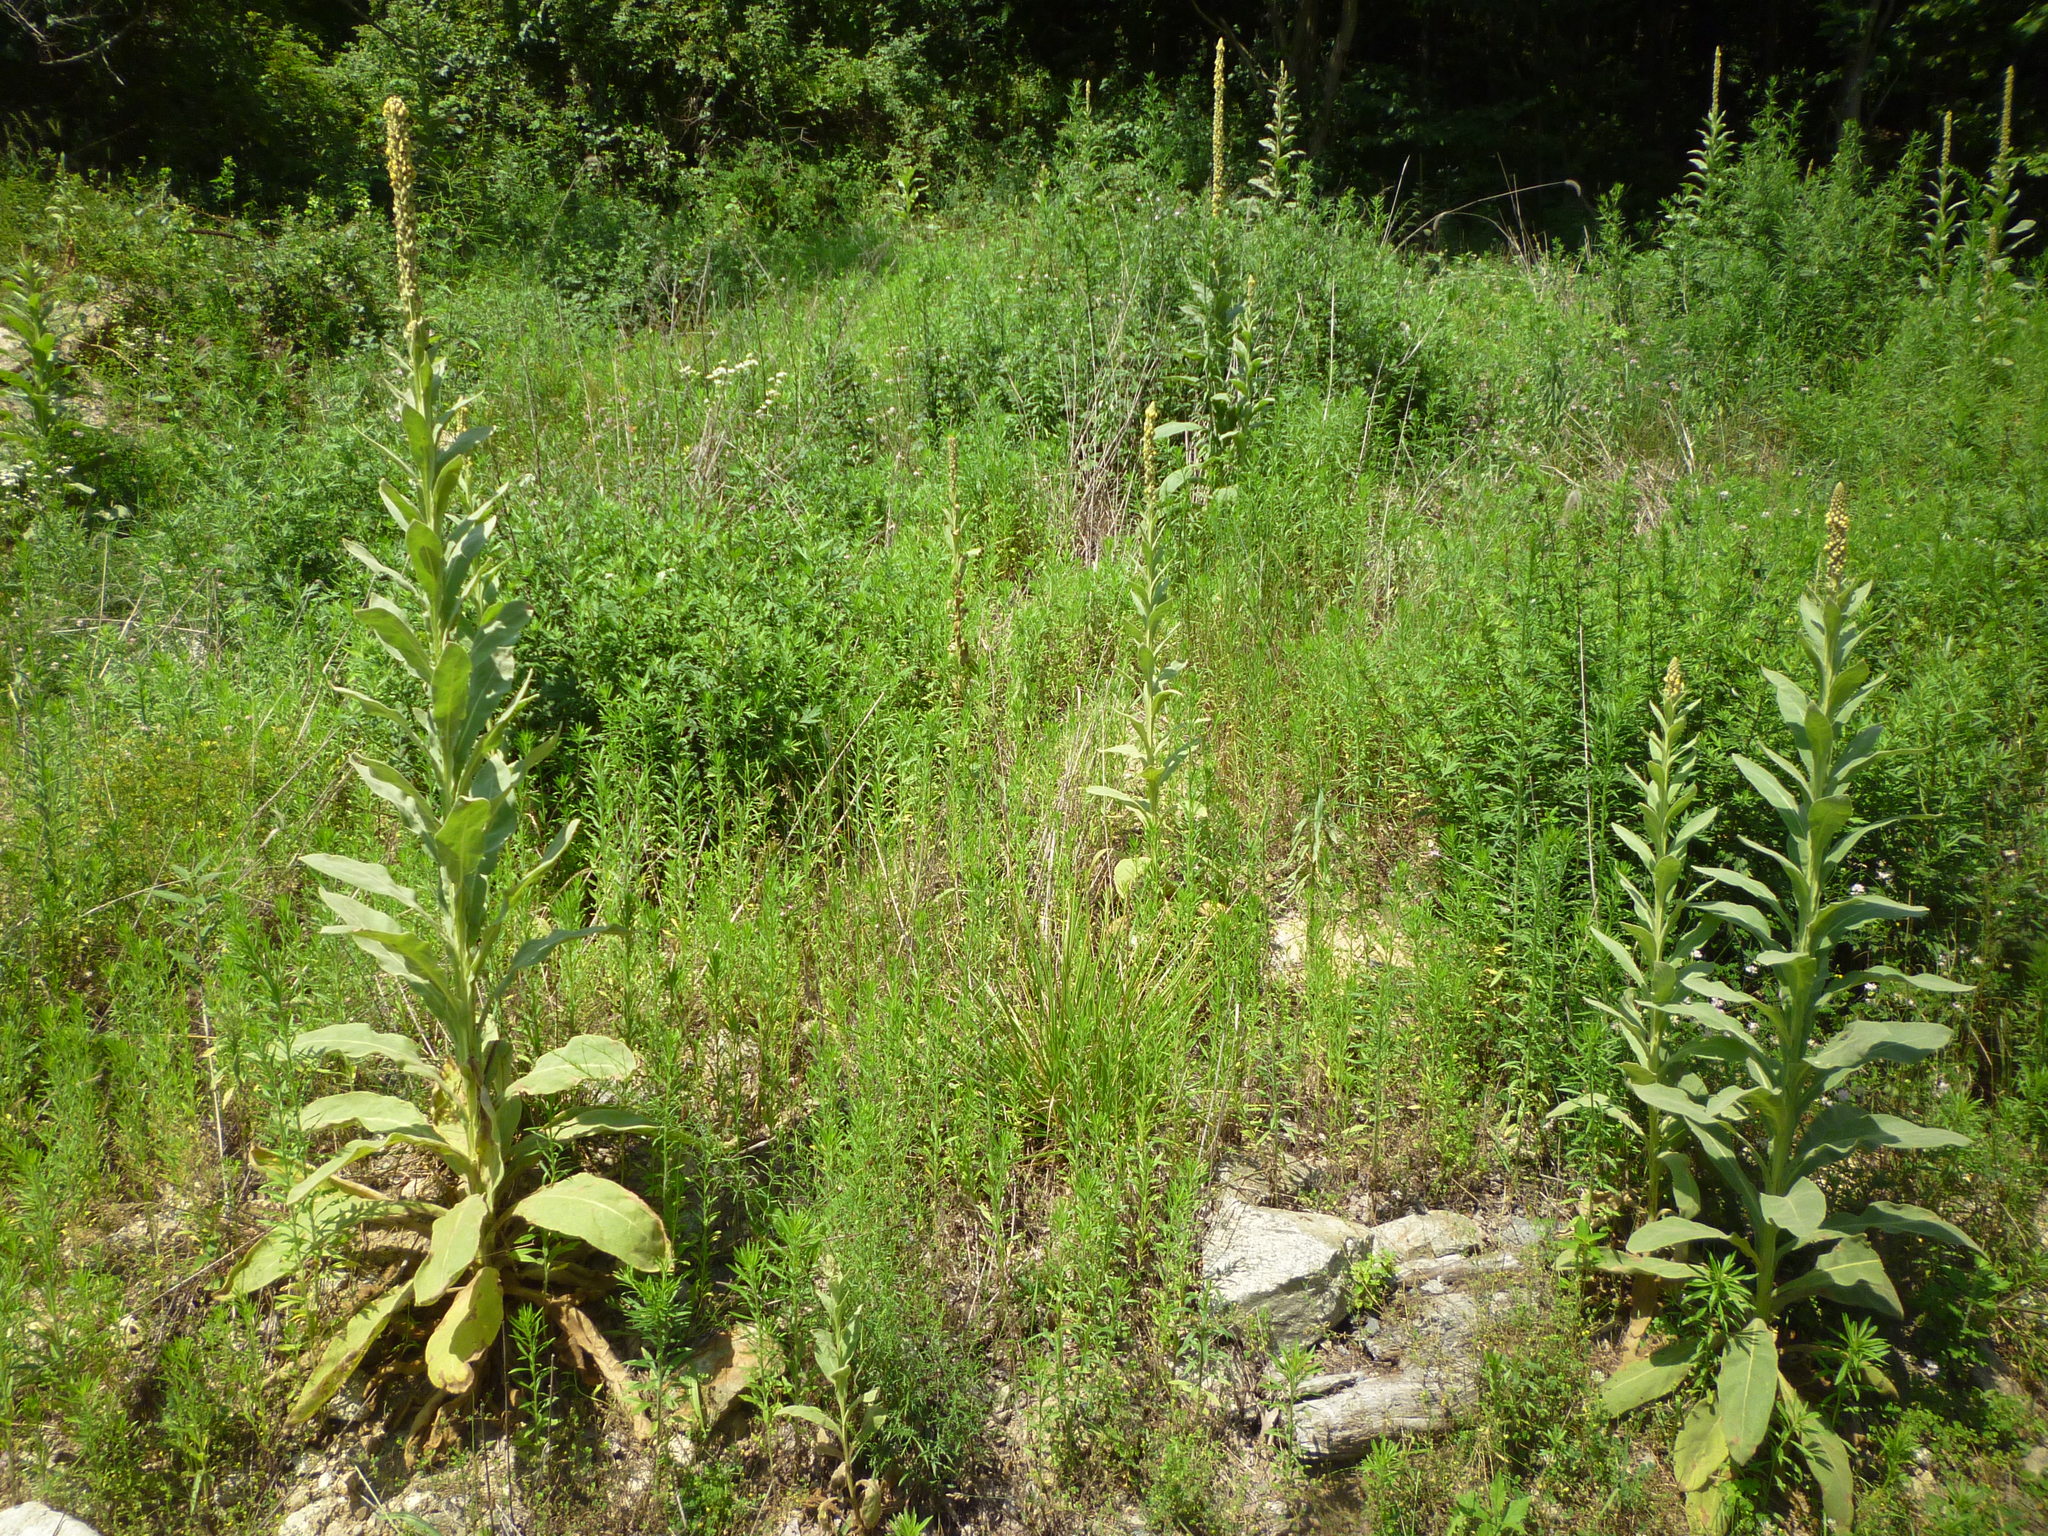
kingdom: Plantae
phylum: Tracheophyta
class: Magnoliopsida
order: Lamiales
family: Scrophulariaceae
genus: Verbascum
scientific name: Verbascum thapsus
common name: Common mullein
